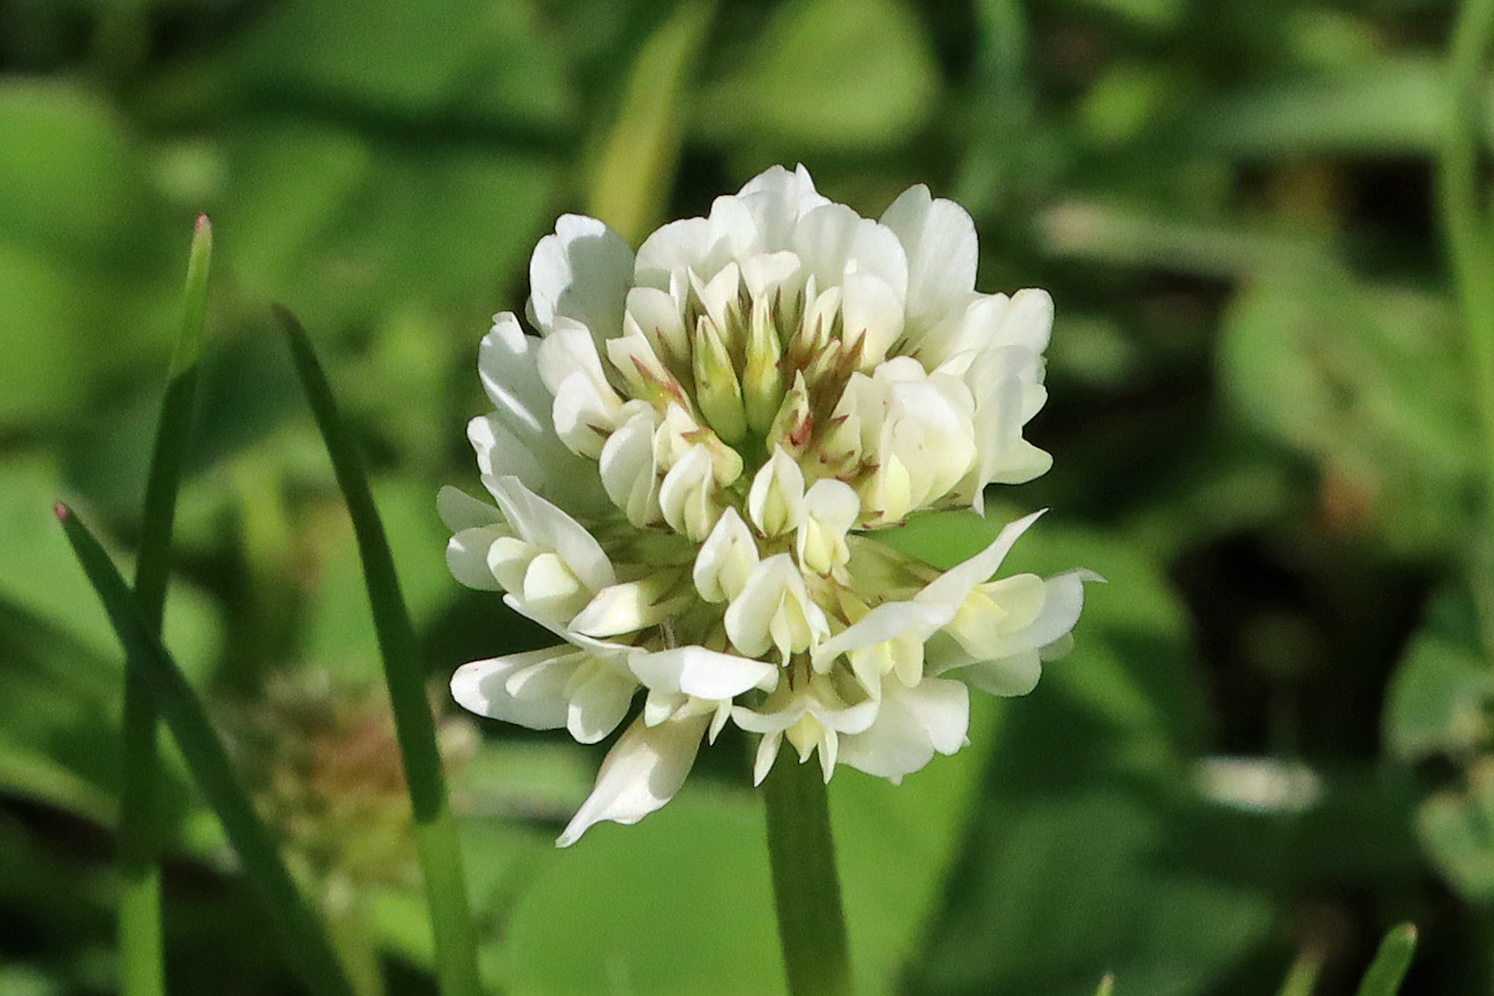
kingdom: Plantae
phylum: Tracheophyta
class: Magnoliopsida
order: Fabales
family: Fabaceae
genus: Trifolium
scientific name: Trifolium repens
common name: White clover
